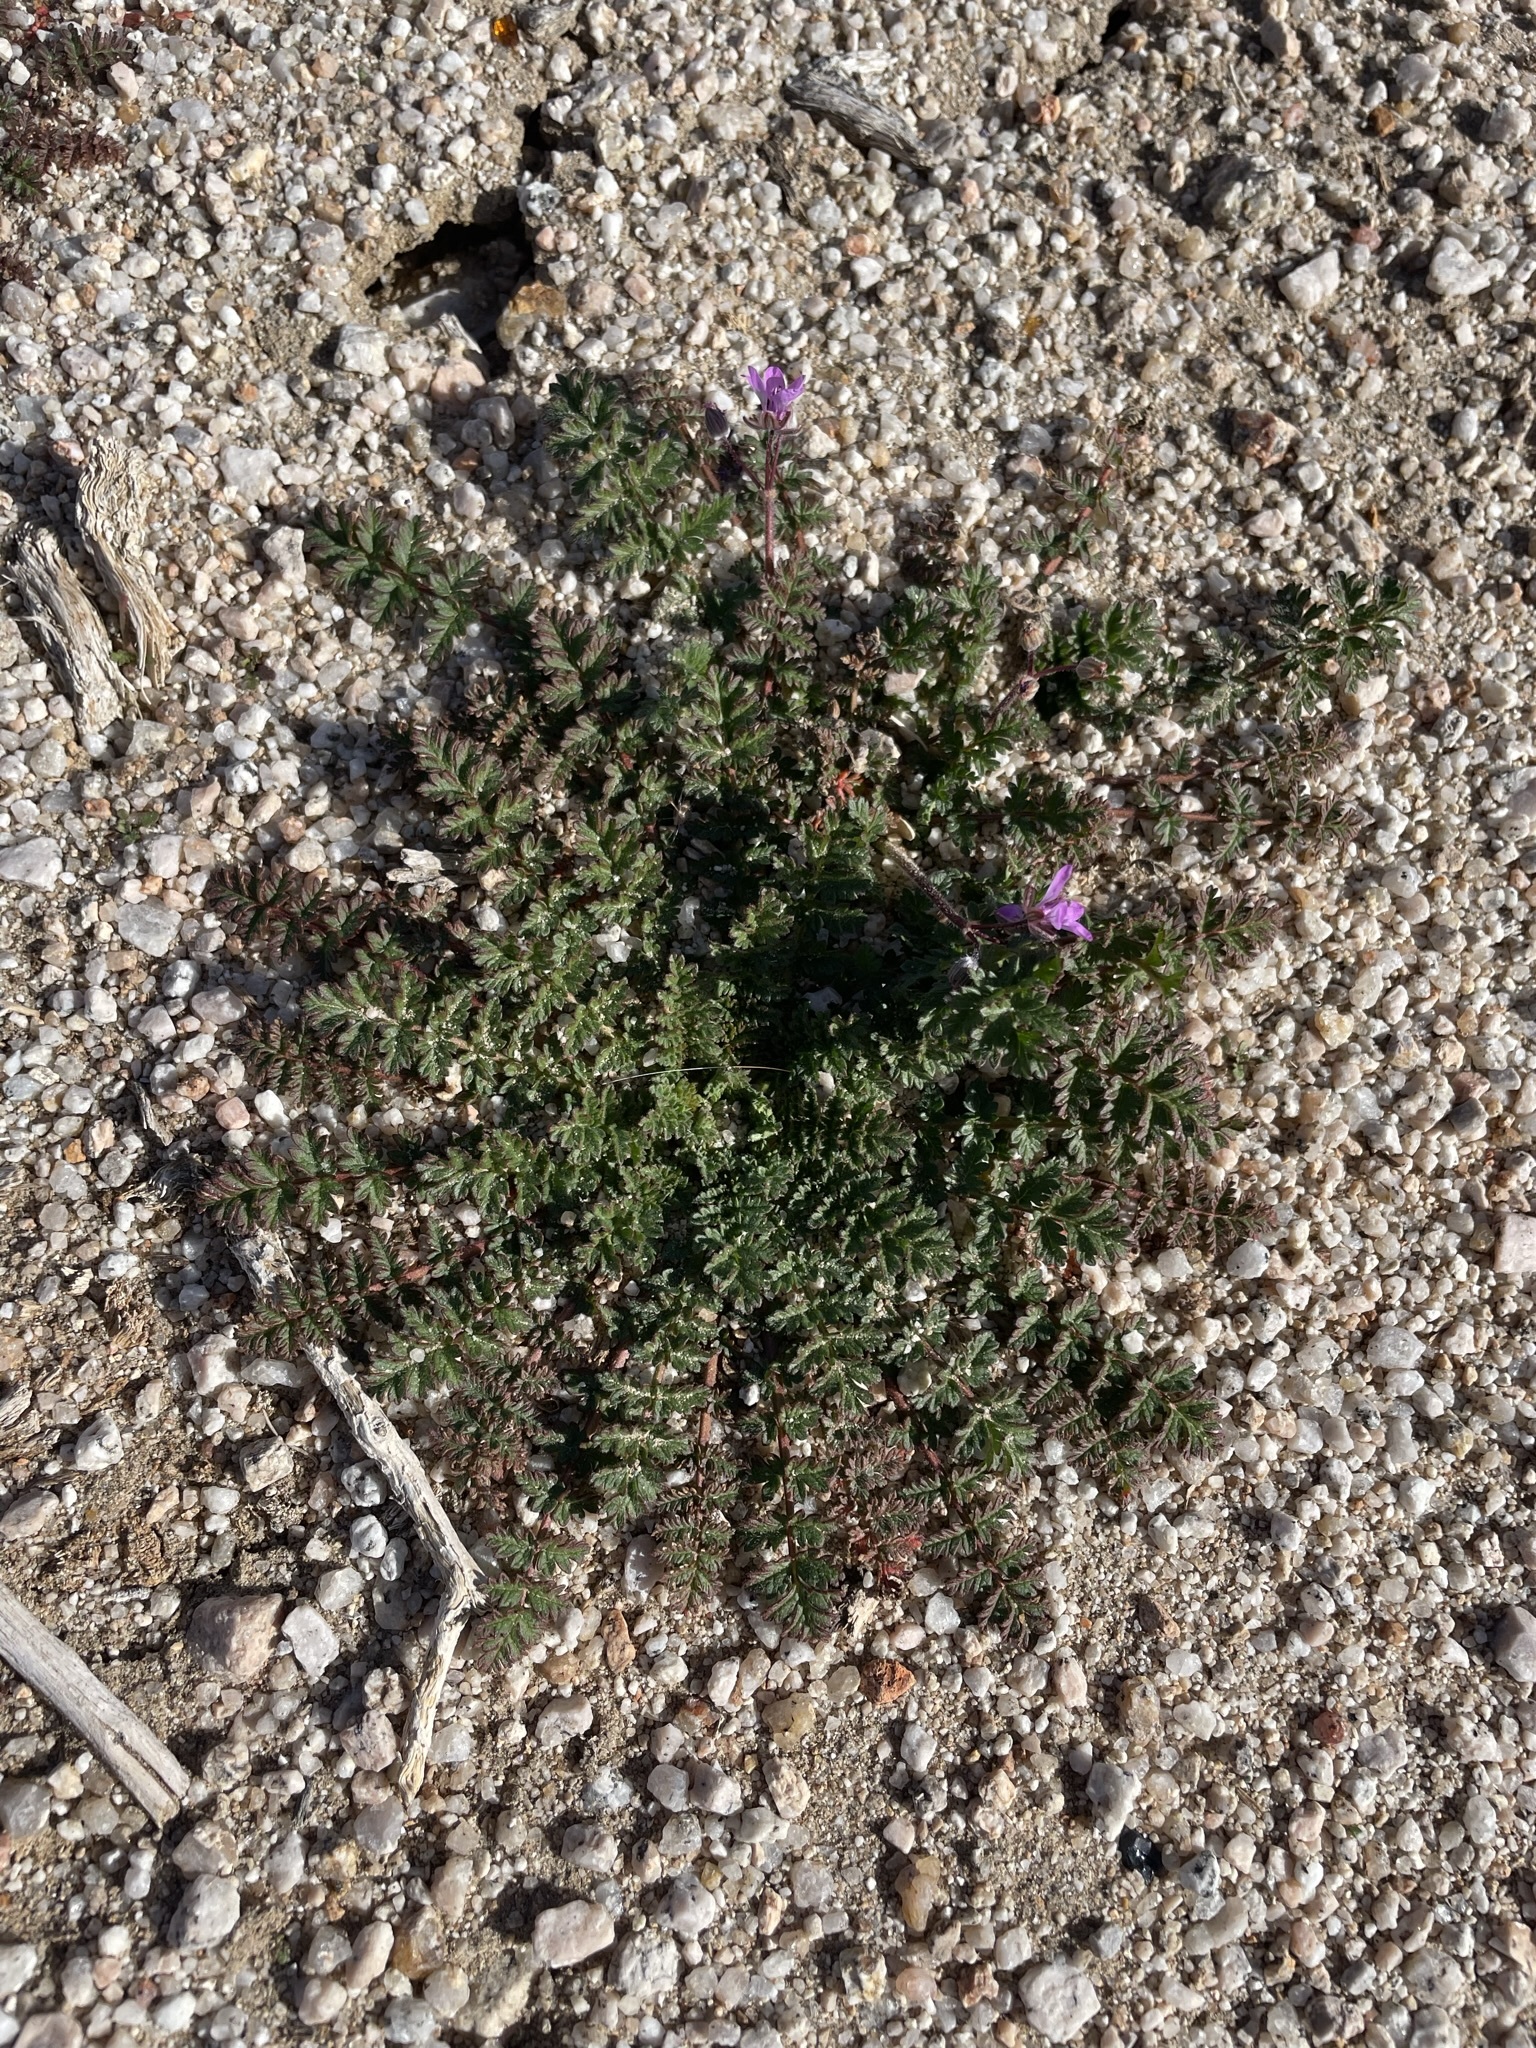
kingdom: Plantae
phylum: Tracheophyta
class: Magnoliopsida
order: Geraniales
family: Geraniaceae
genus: Erodium
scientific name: Erodium cicutarium
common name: Common stork's-bill
